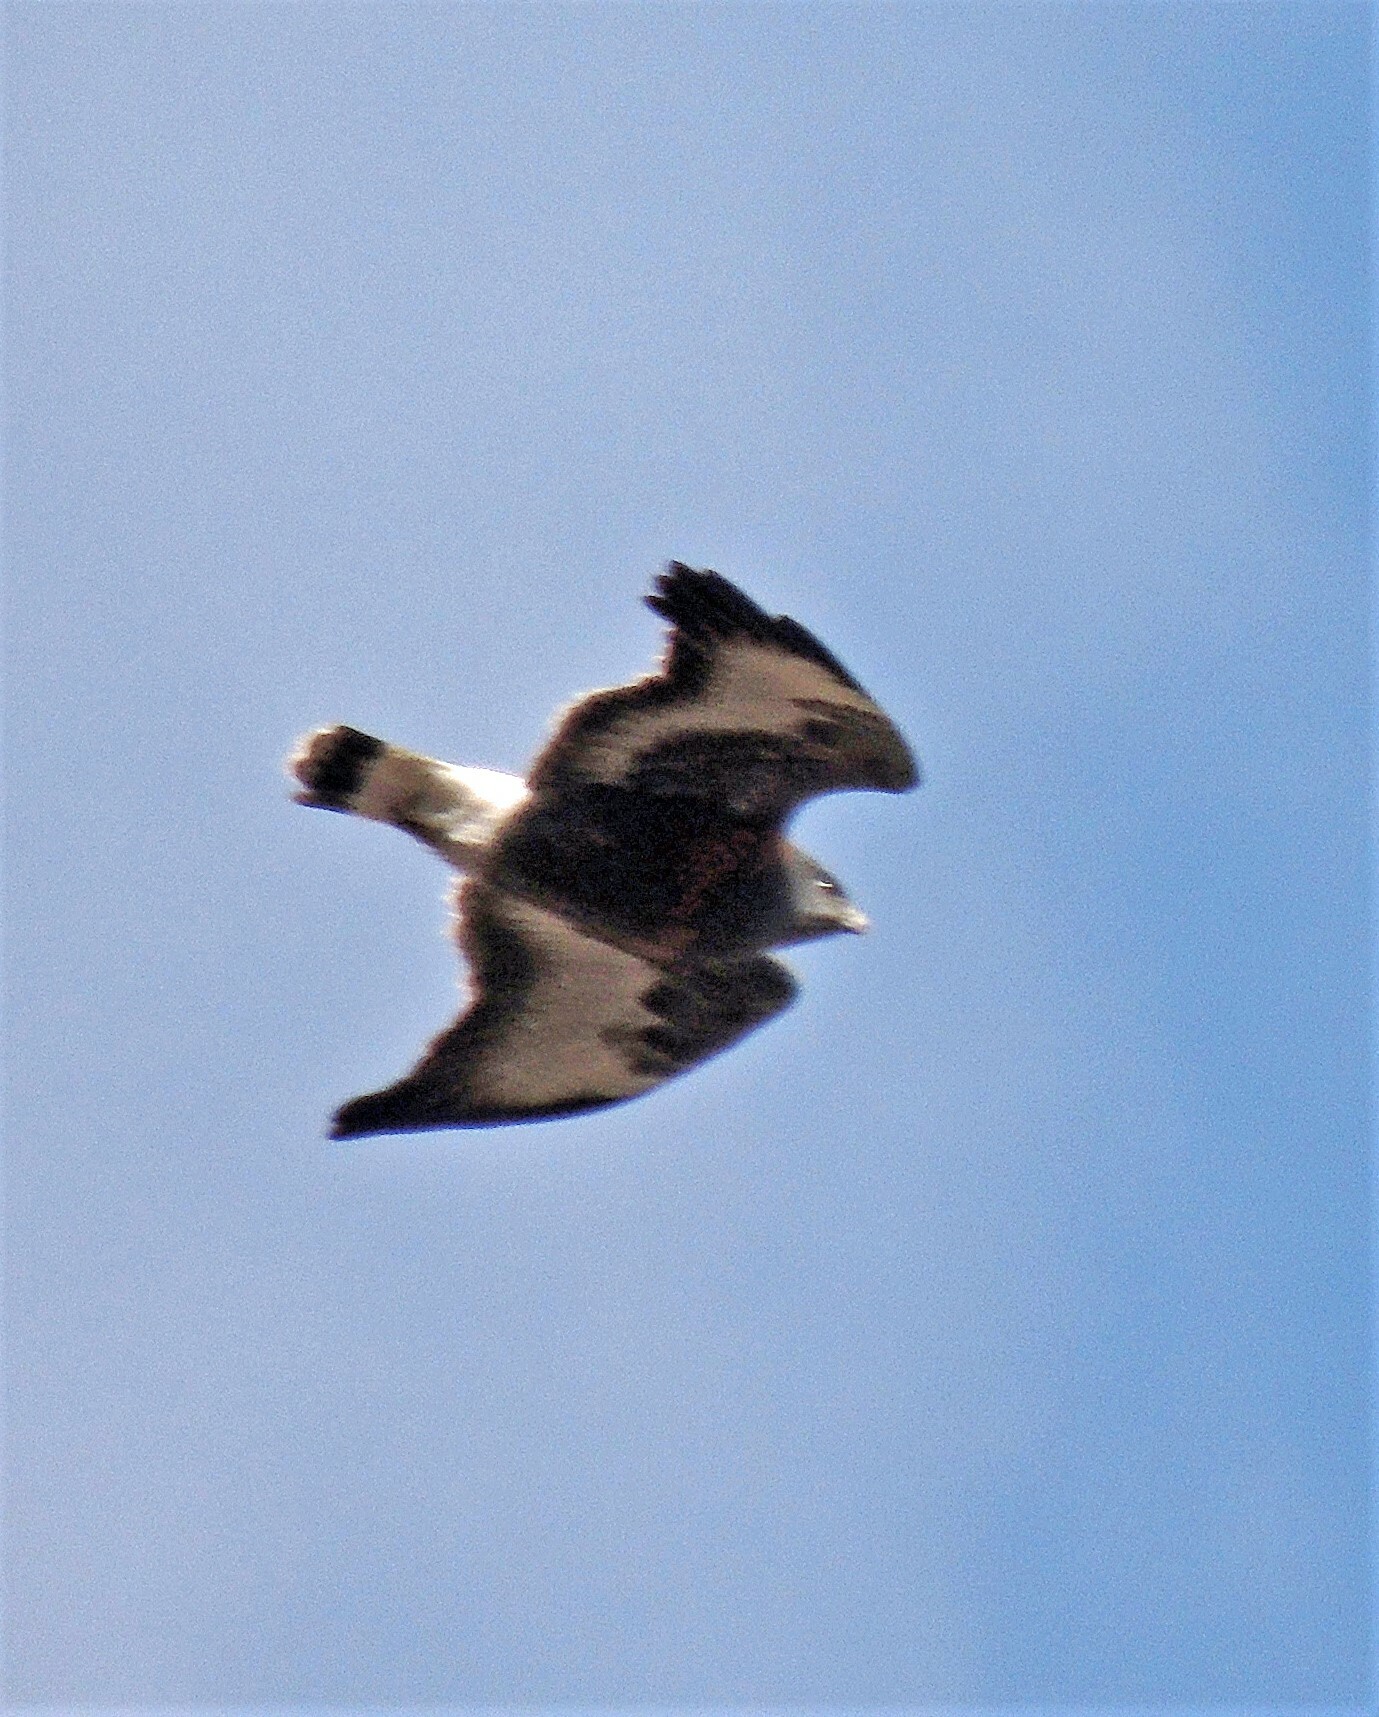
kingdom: Animalia
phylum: Chordata
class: Aves
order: Accipitriformes
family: Accipitridae
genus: Buteo
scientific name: Buteo albicaudatus
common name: White-tailed hawk
